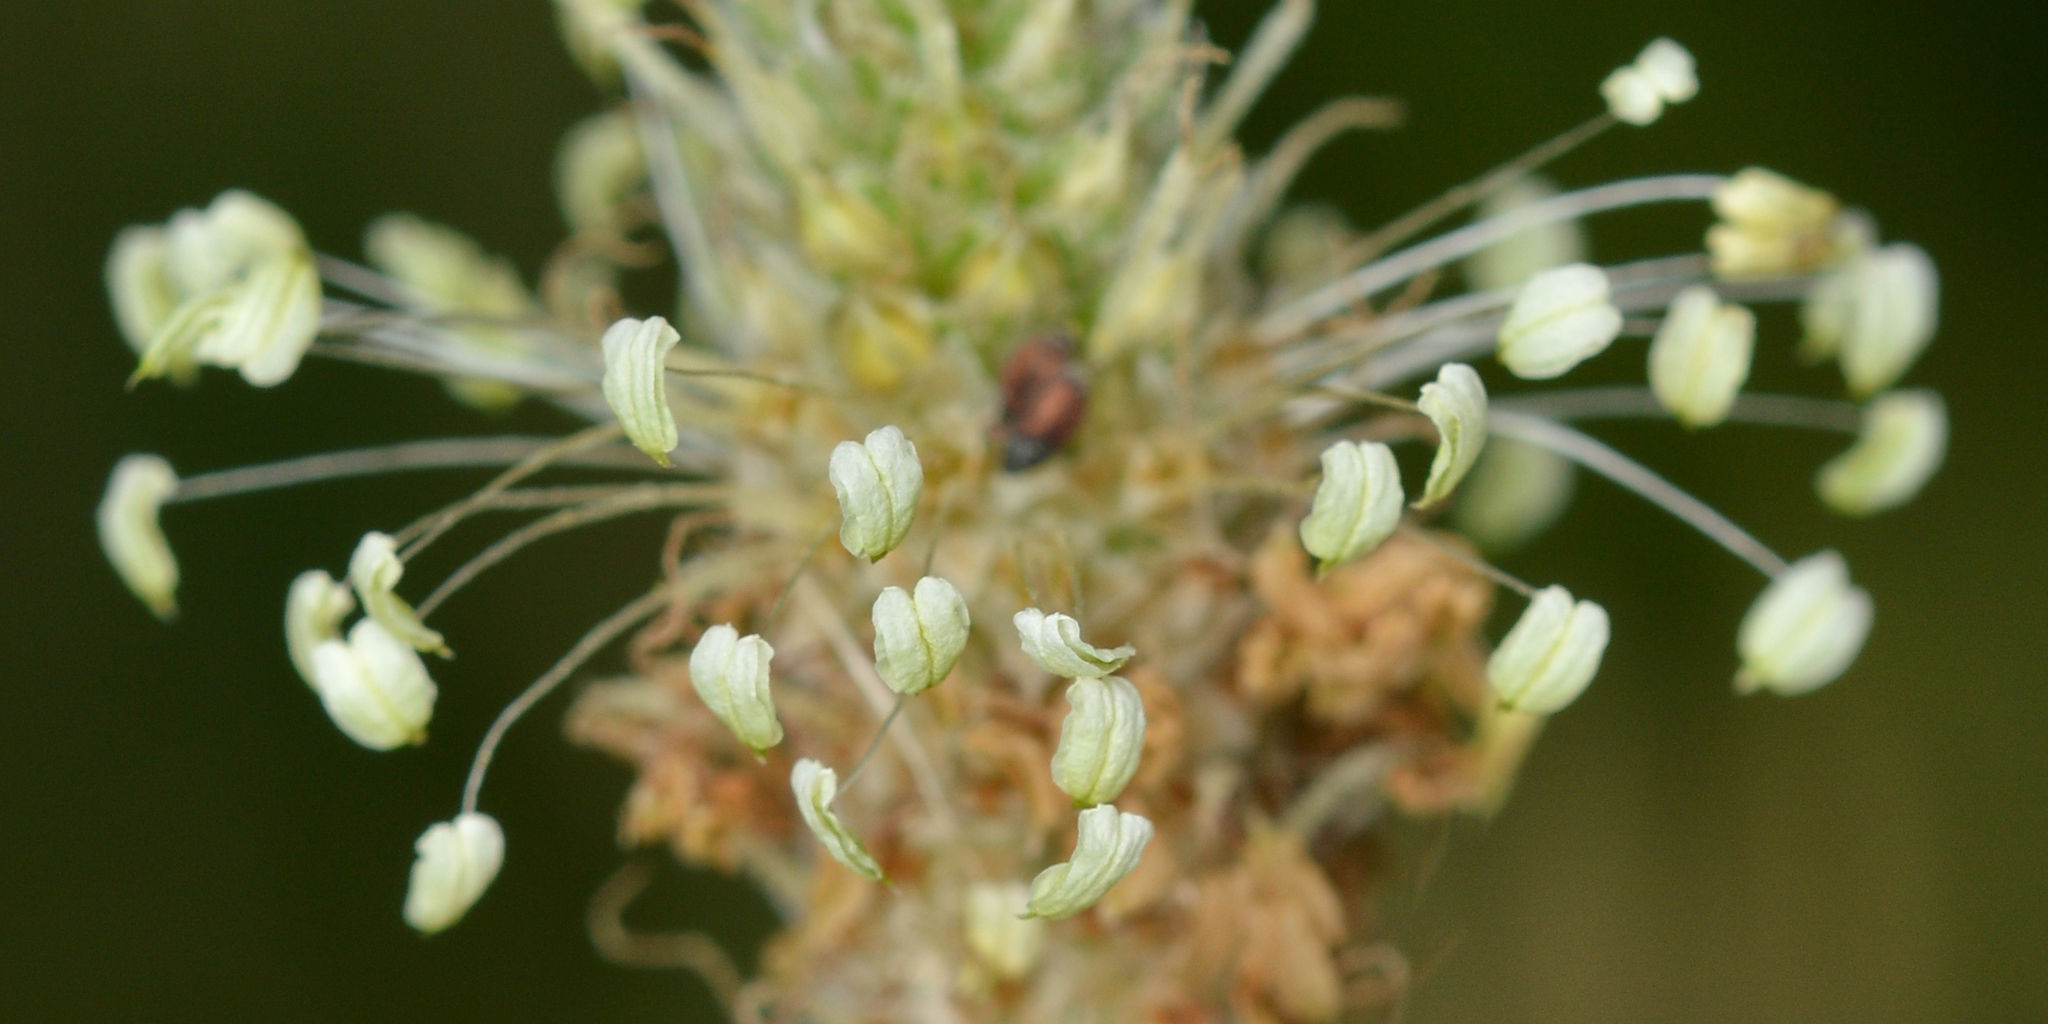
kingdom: Plantae
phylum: Tracheophyta
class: Magnoliopsida
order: Lamiales
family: Plantaginaceae
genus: Plantago
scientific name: Plantago lanceolata
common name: Ribwort plantain
